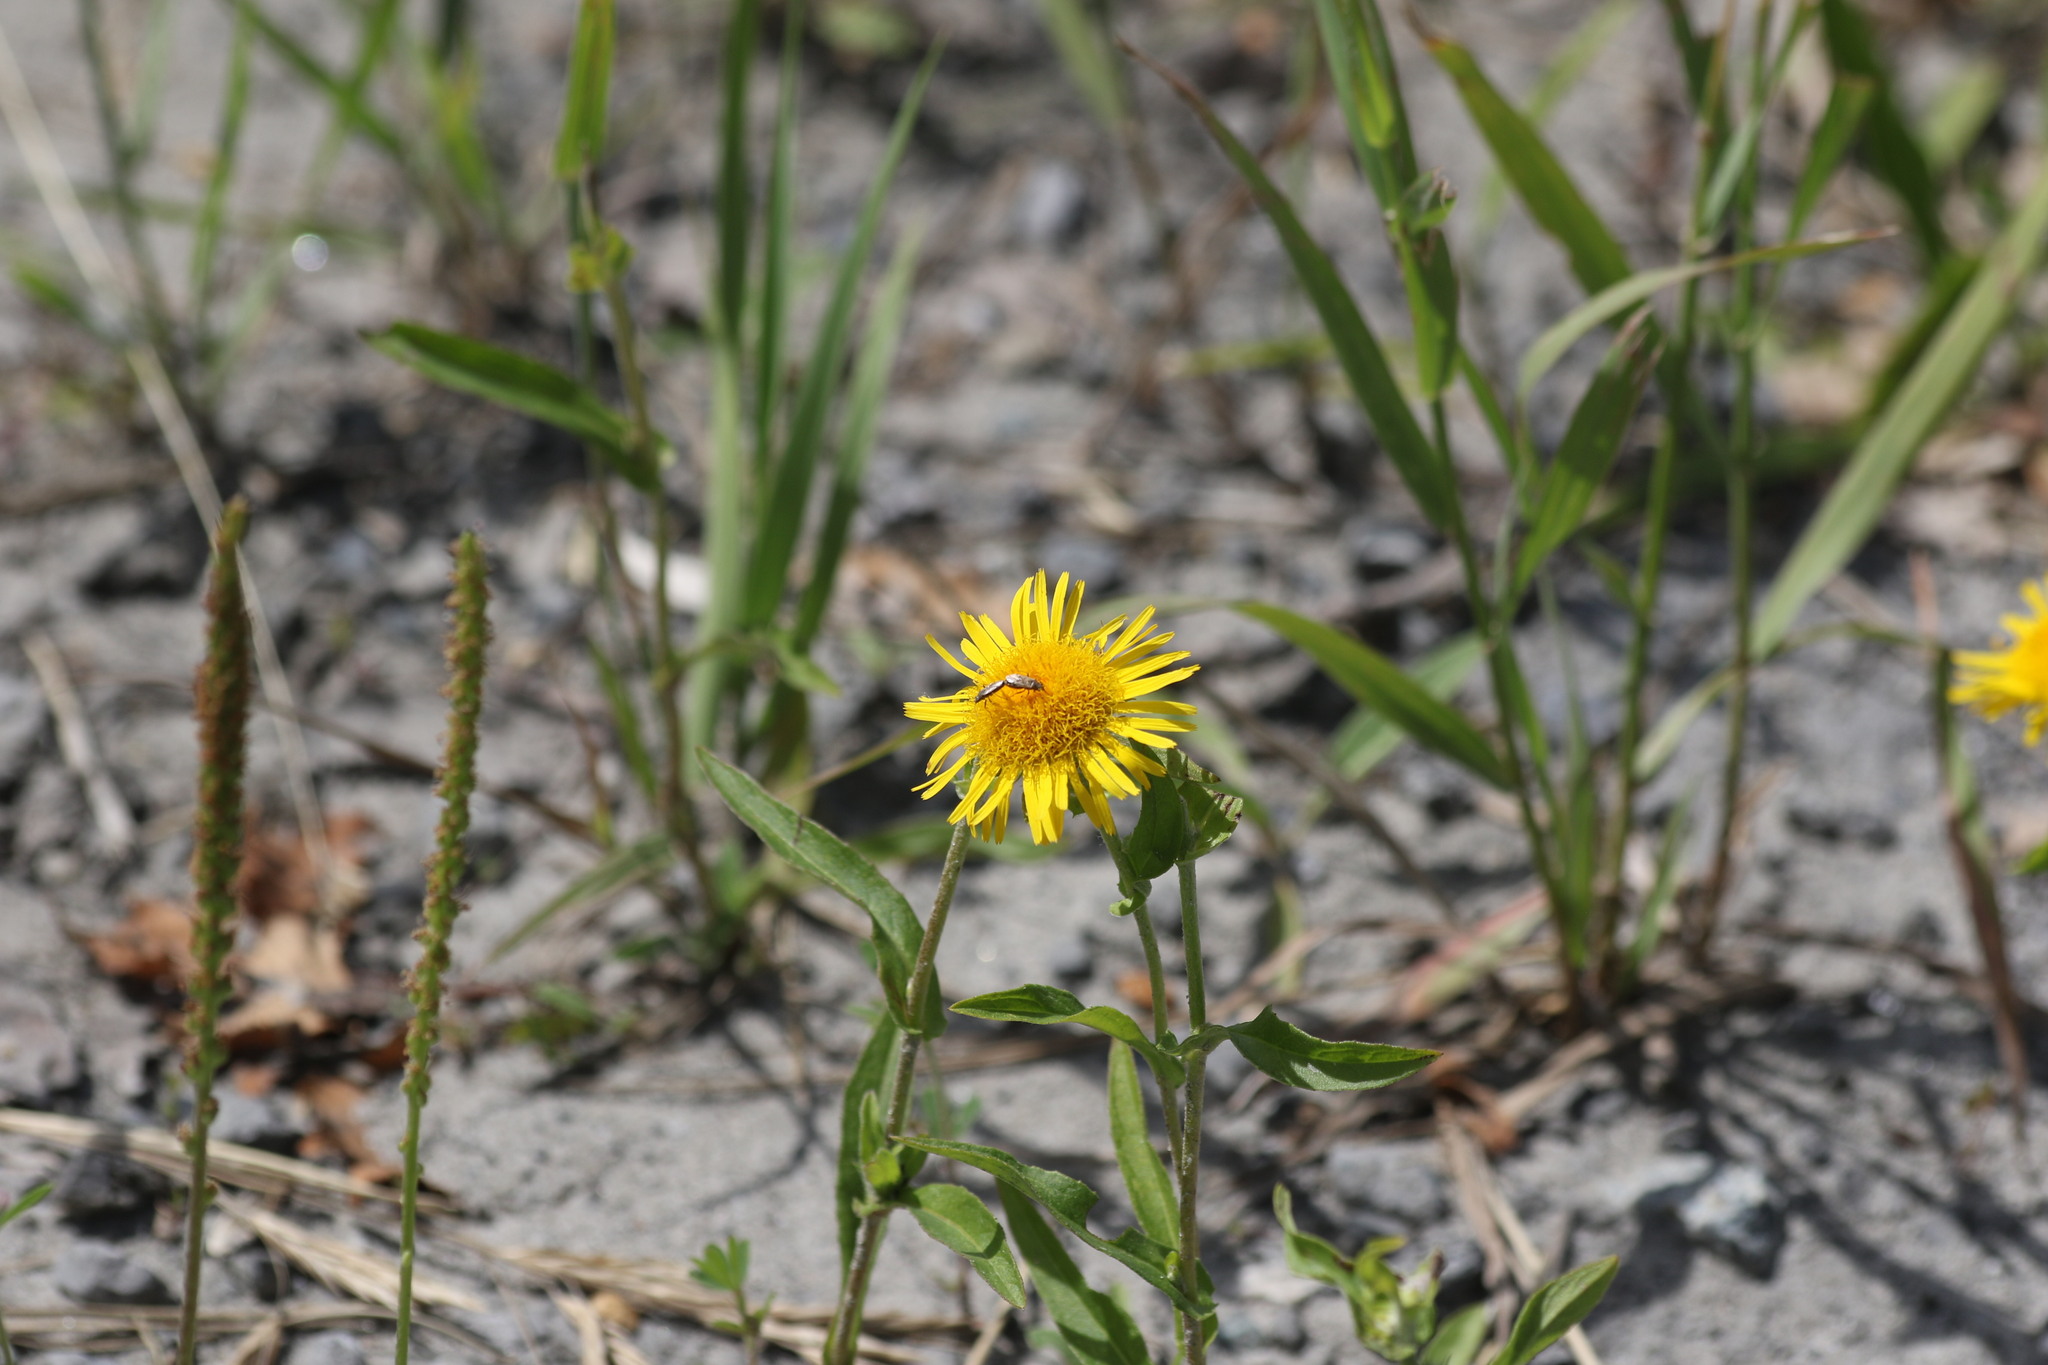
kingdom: Plantae
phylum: Tracheophyta
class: Magnoliopsida
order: Asterales
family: Asteraceae
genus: Pentanema
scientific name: Pentanema britannicum
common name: British elecampane
